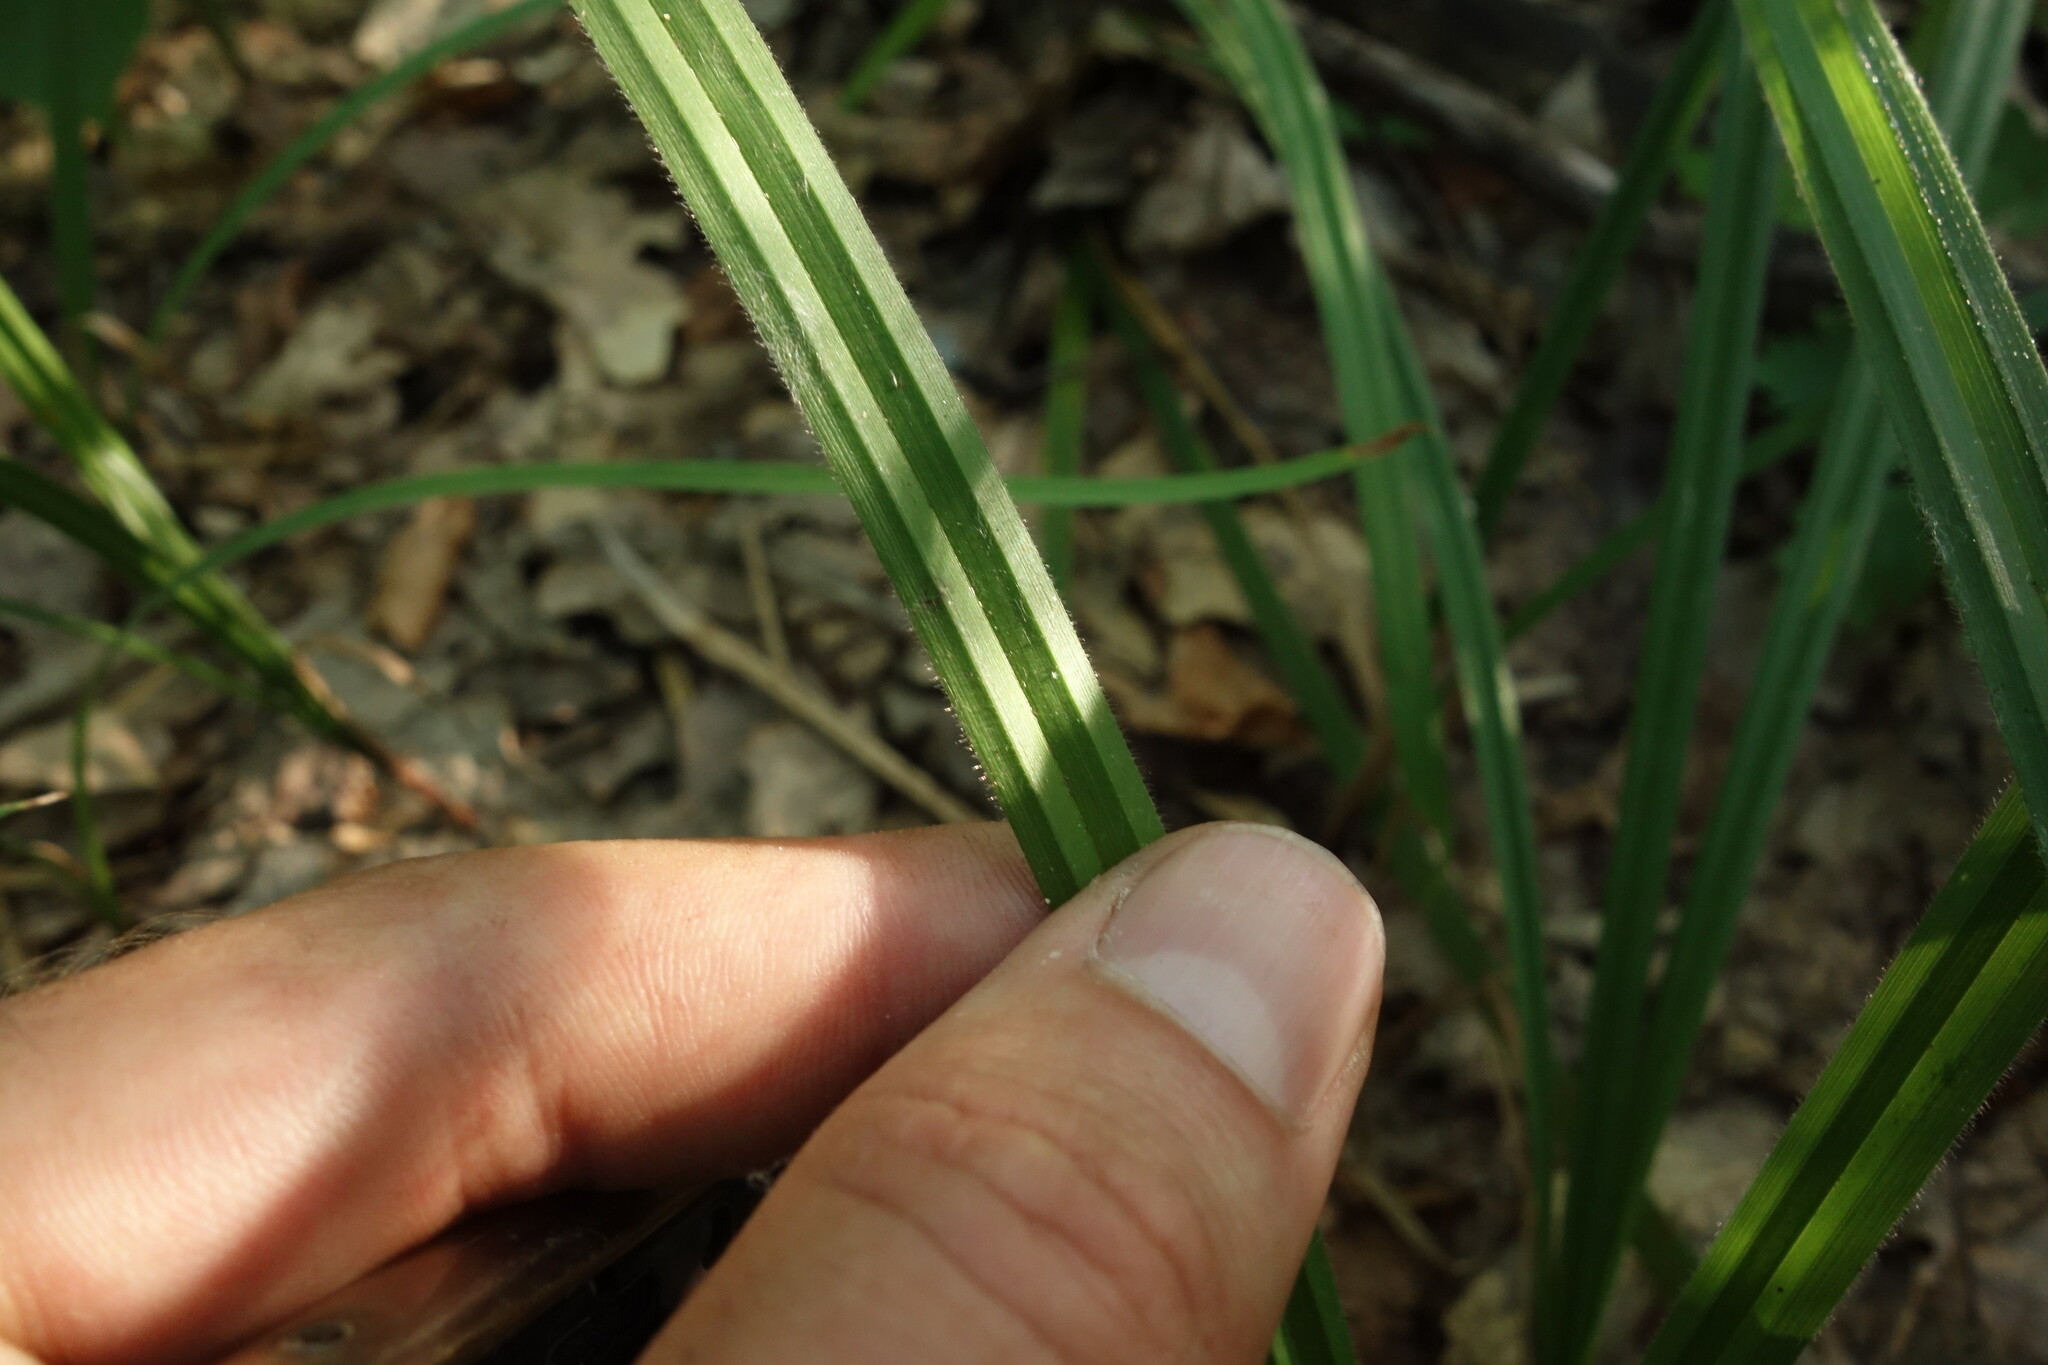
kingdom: Plantae
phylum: Tracheophyta
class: Liliopsida
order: Poales
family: Cyperaceae
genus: Carex
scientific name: Carex pilosa
